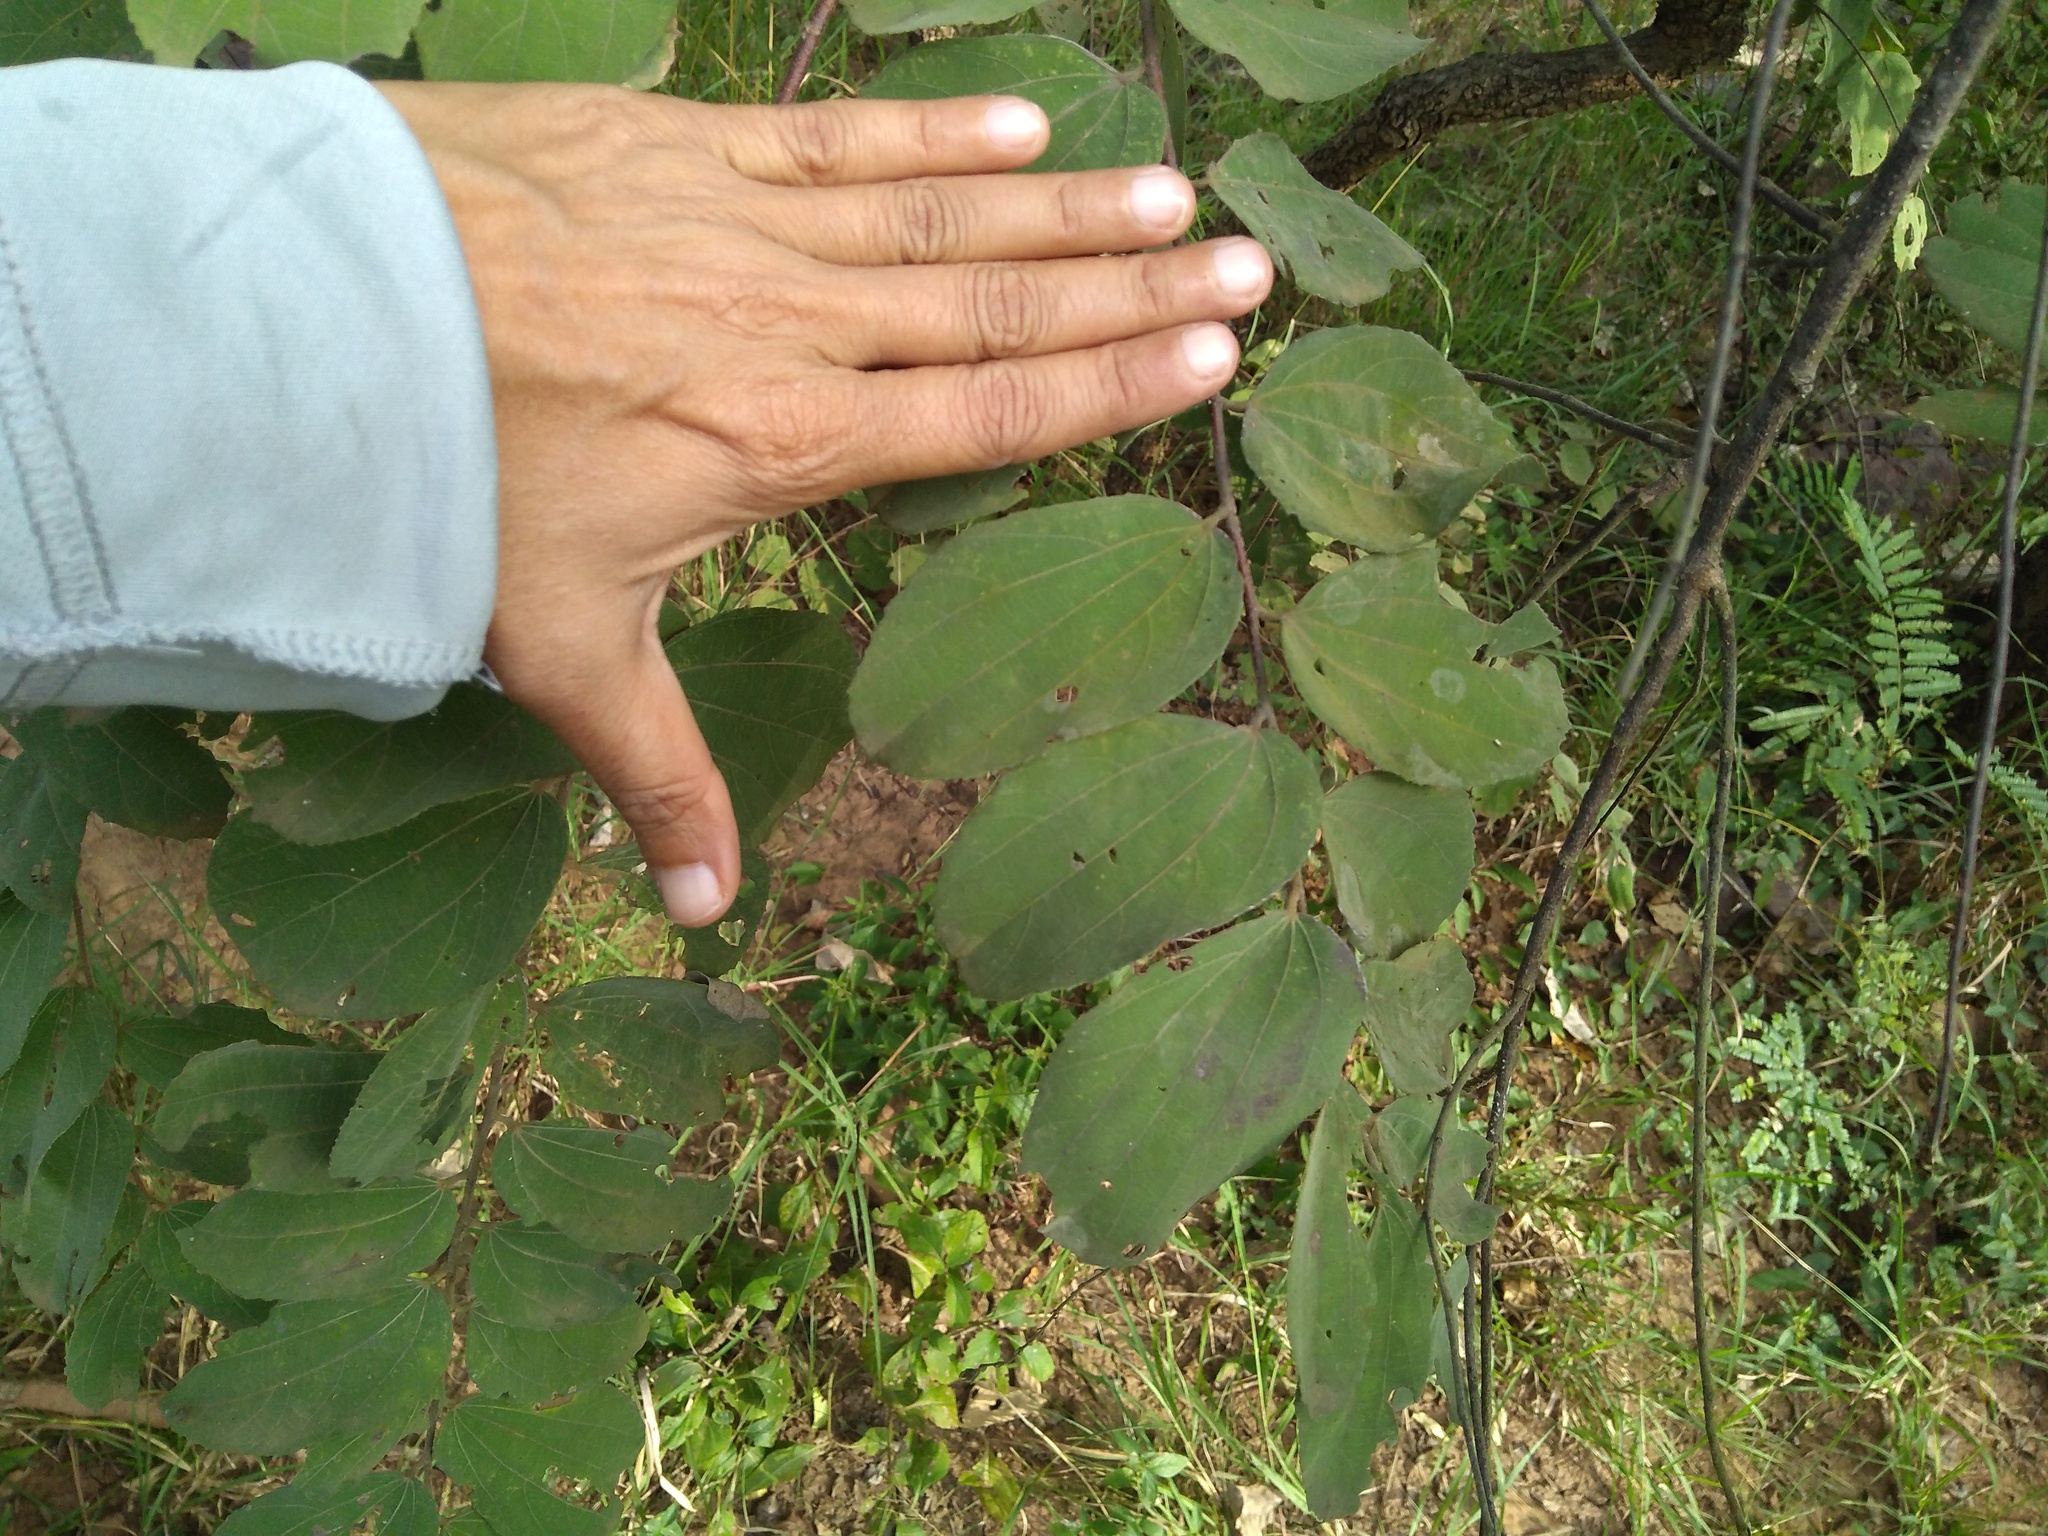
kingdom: Plantae
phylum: Tracheophyta
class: Magnoliopsida
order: Malvales
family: Malvaceae
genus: Grewia
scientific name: Grewia orbiculata
